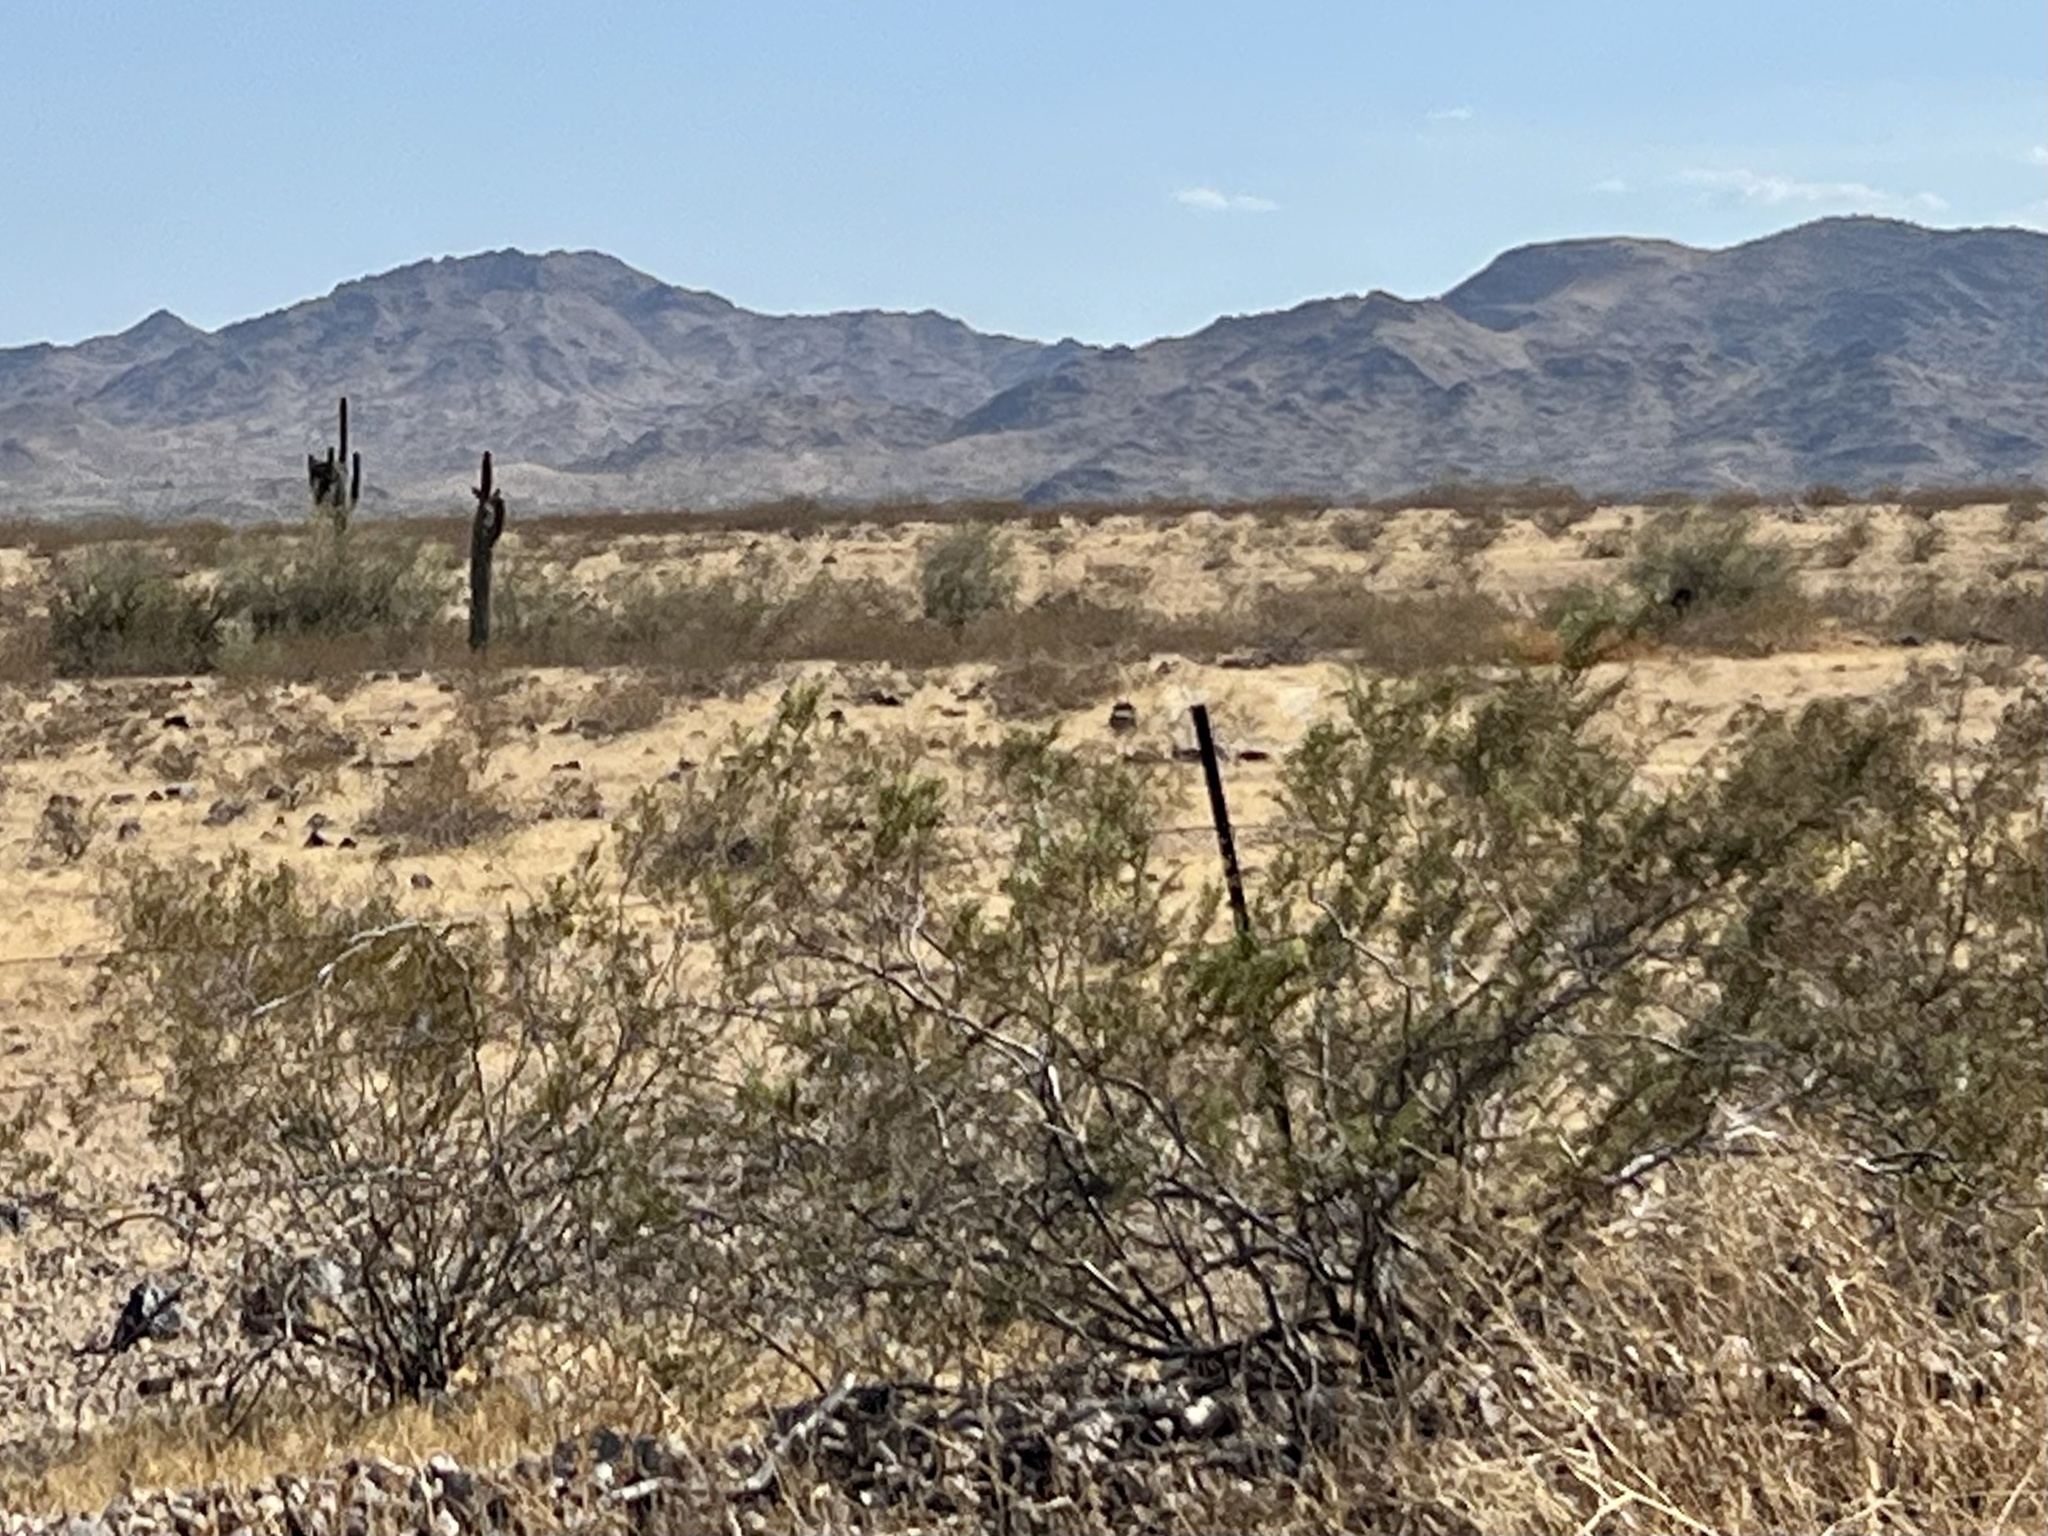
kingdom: Plantae
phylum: Tracheophyta
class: Magnoliopsida
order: Zygophyllales
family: Zygophyllaceae
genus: Larrea
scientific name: Larrea tridentata
